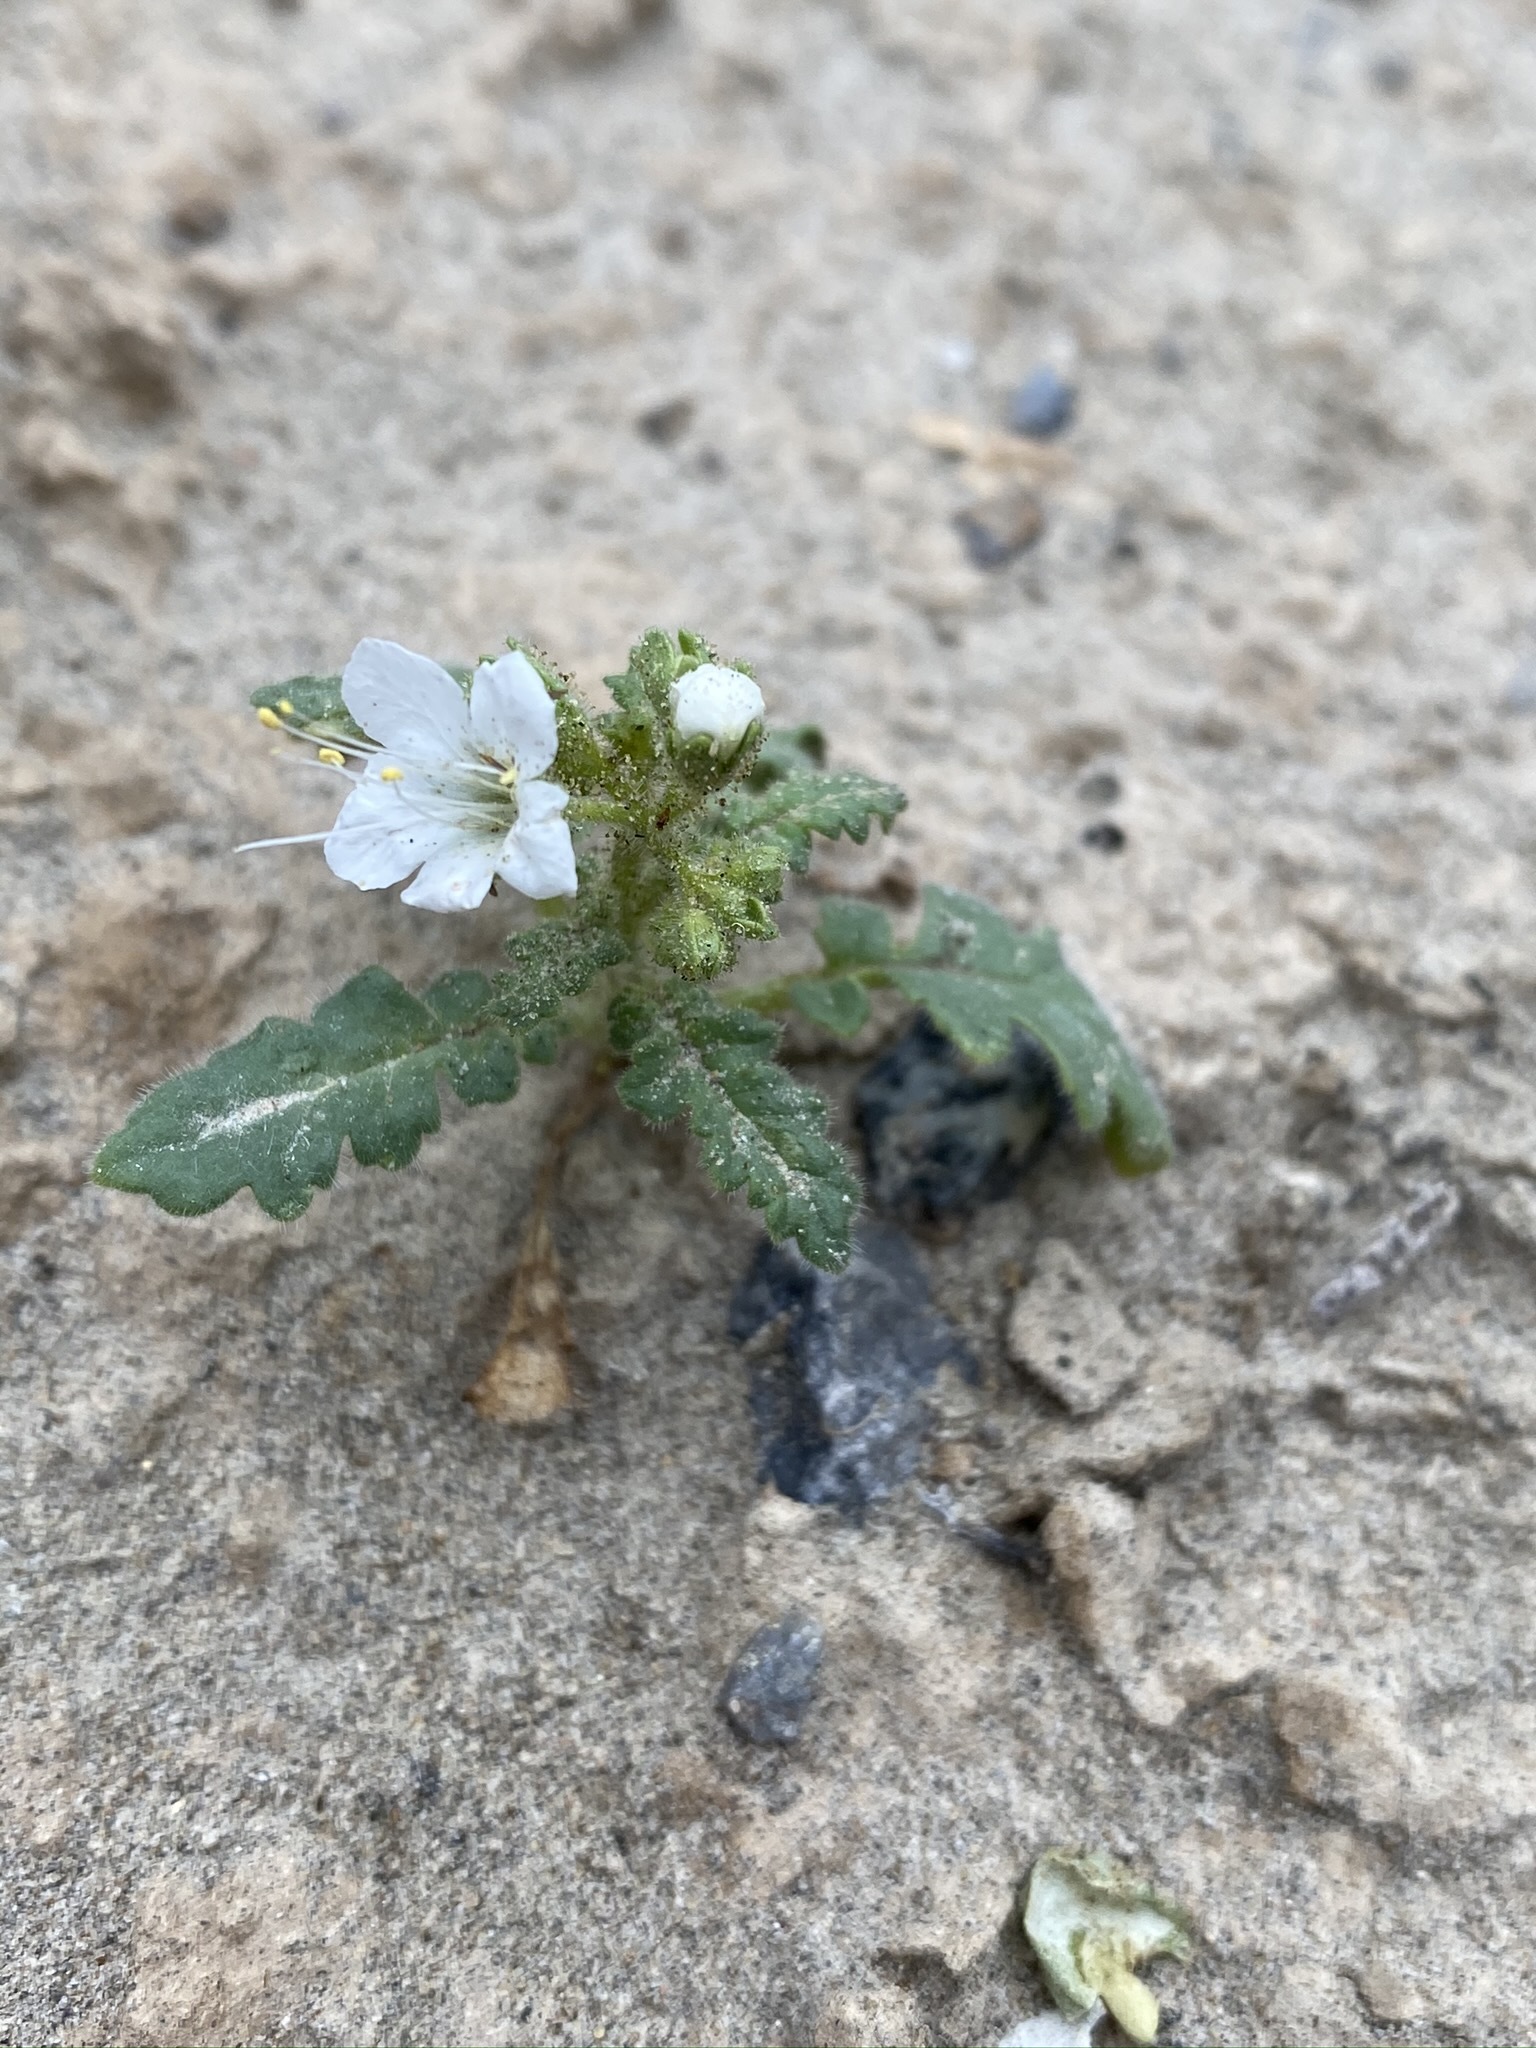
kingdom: Plantae
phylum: Tracheophyta
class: Magnoliopsida
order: Boraginales
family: Hydrophyllaceae
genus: Phacelia
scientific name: Phacelia crenulata
